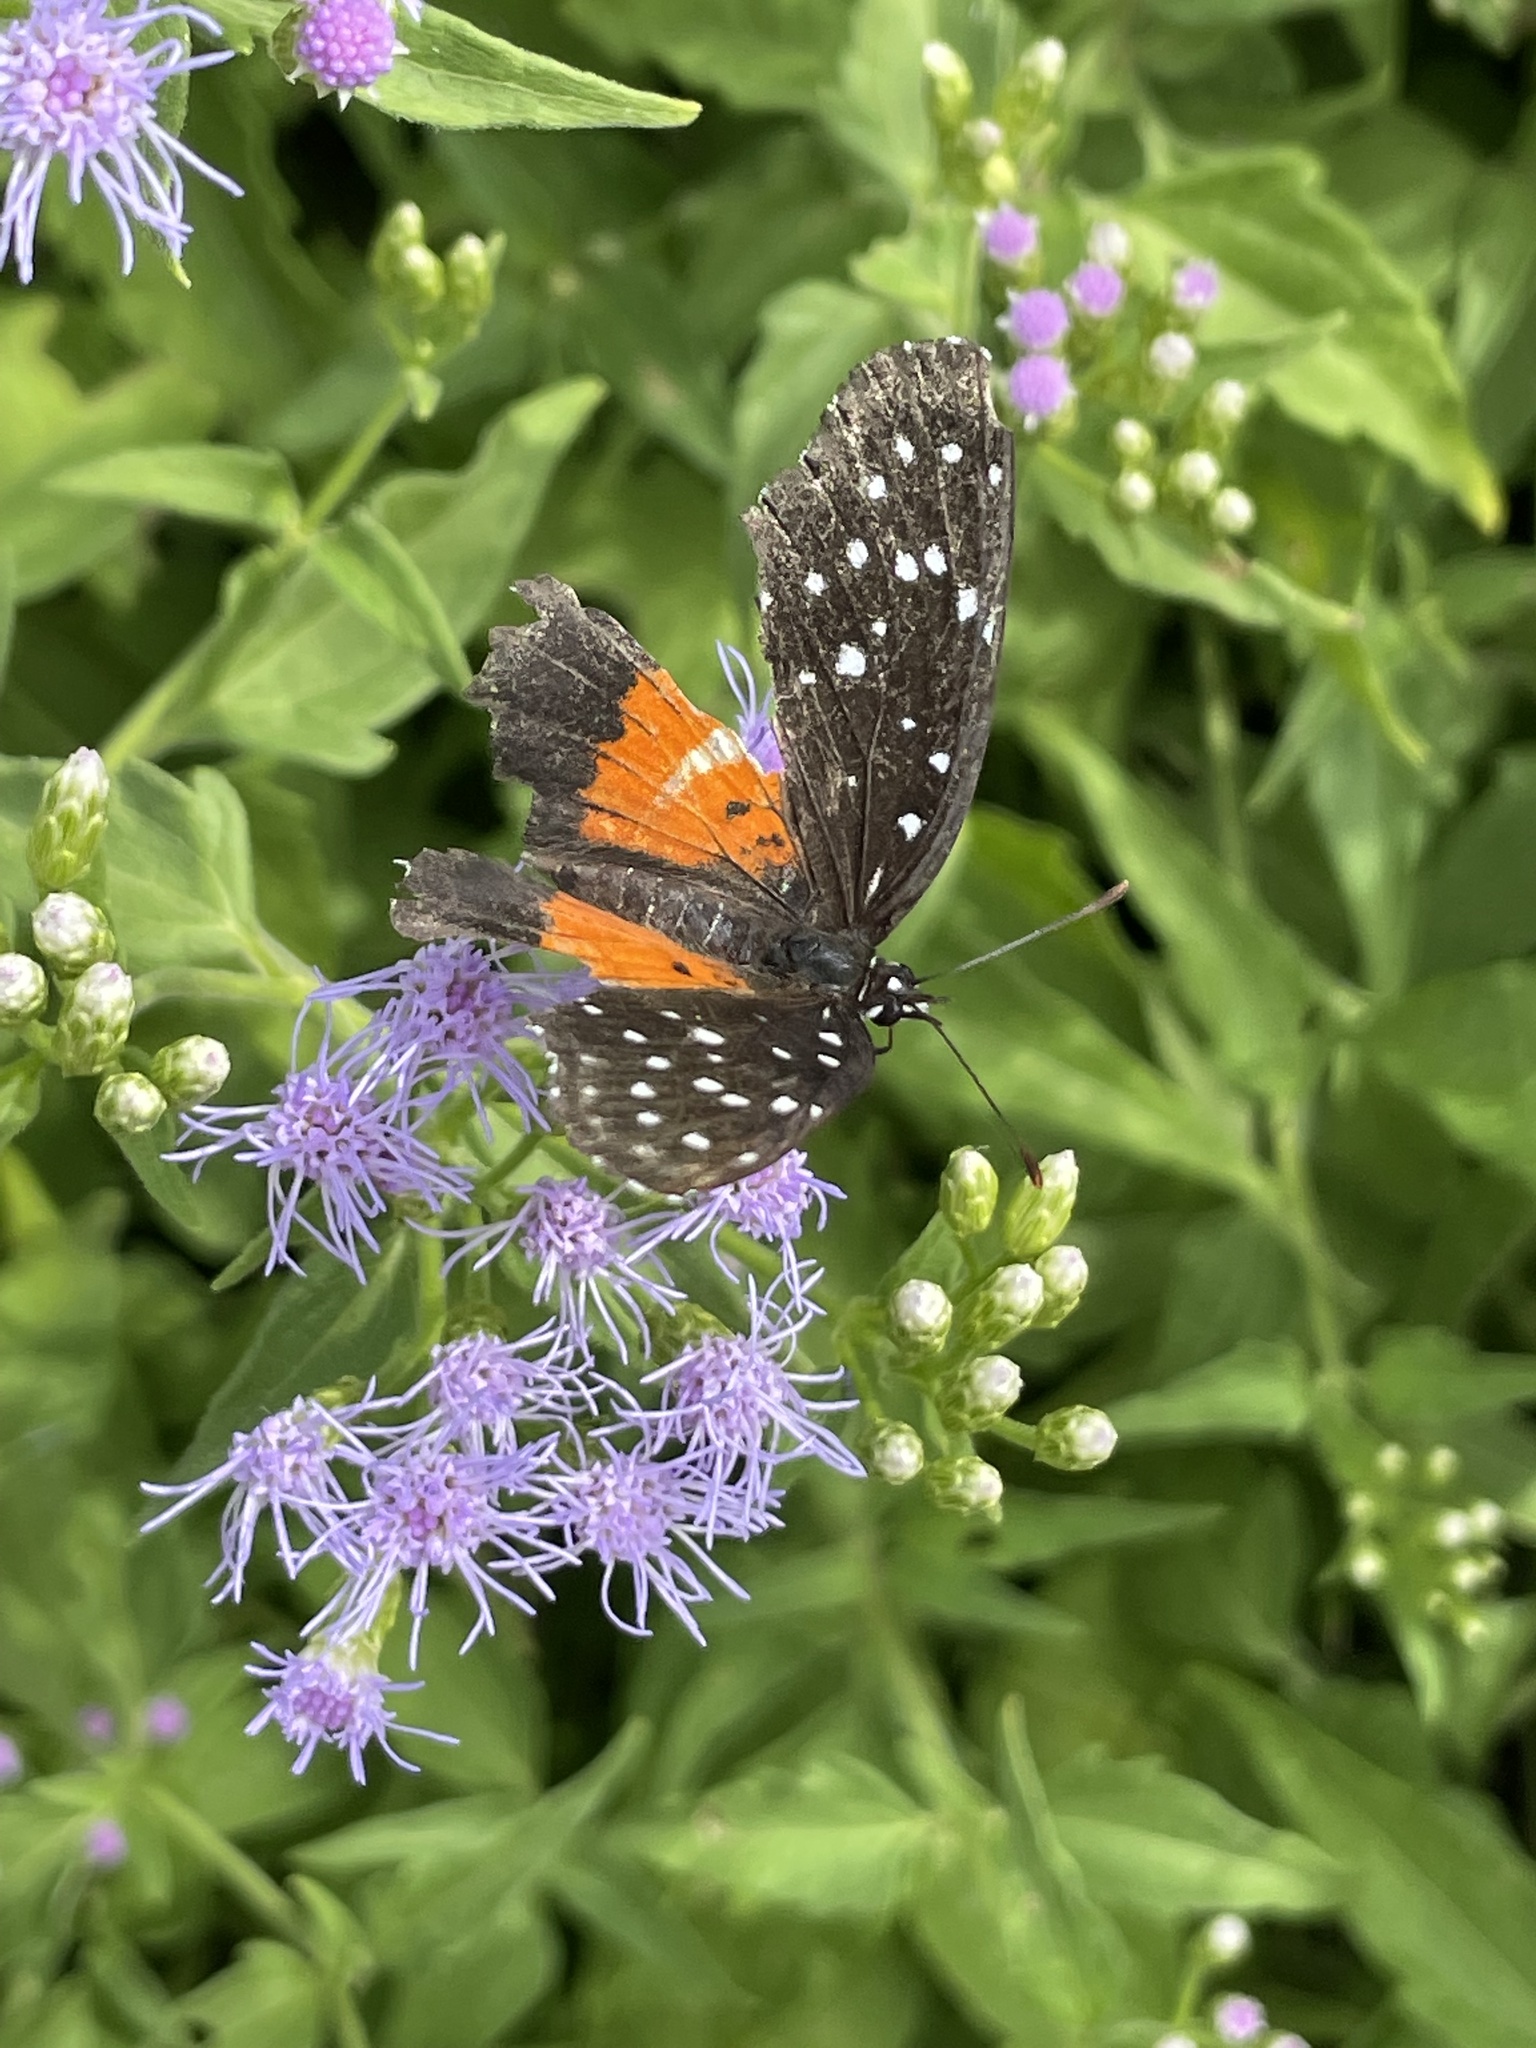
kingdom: Animalia
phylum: Arthropoda
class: Insecta
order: Lepidoptera
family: Nymphalidae
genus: Chlosyne
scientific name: Chlosyne janais
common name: Crimson patch
